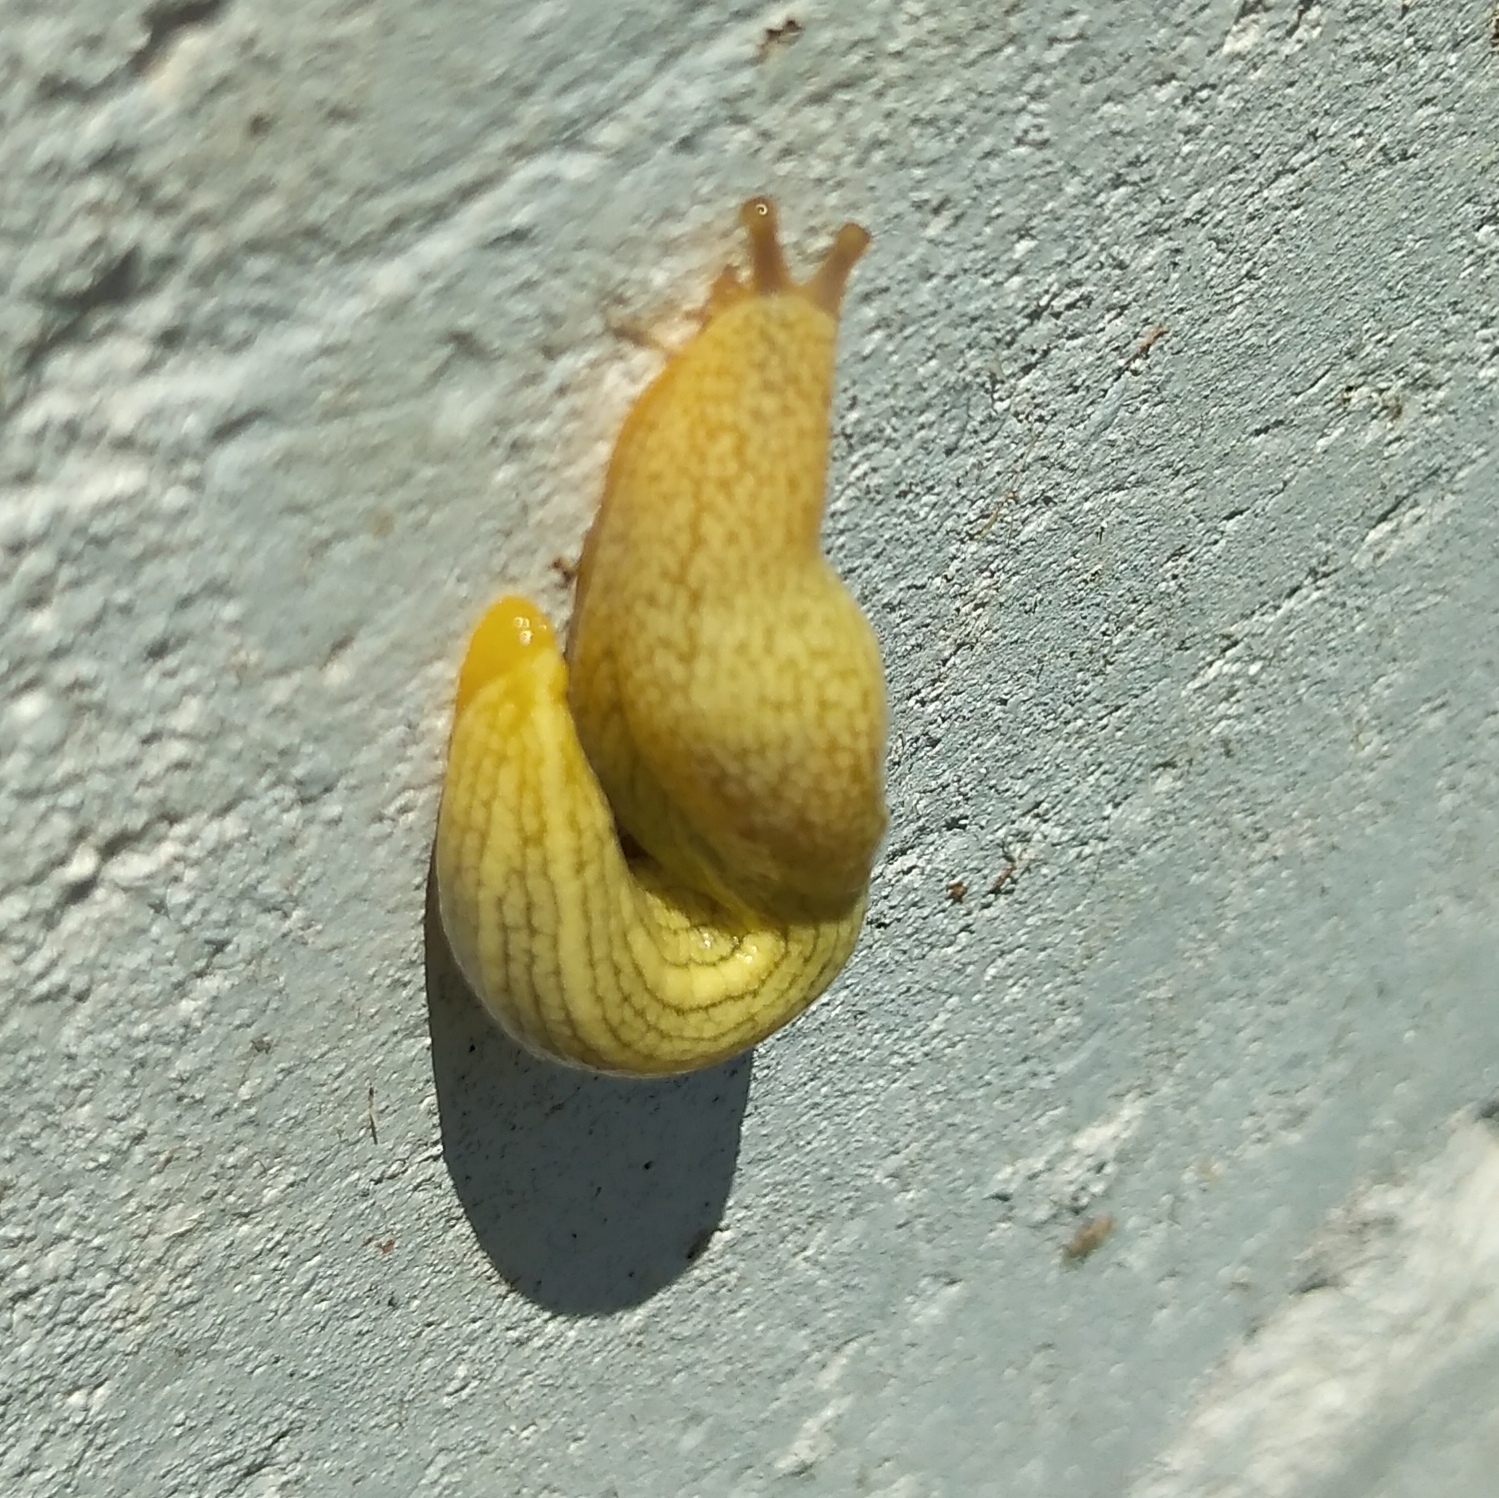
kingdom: Animalia
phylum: Mollusca
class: Gastropoda
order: Stylommatophora
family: Urocyclidae
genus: Elisolimax
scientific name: Elisolimax flavescens
